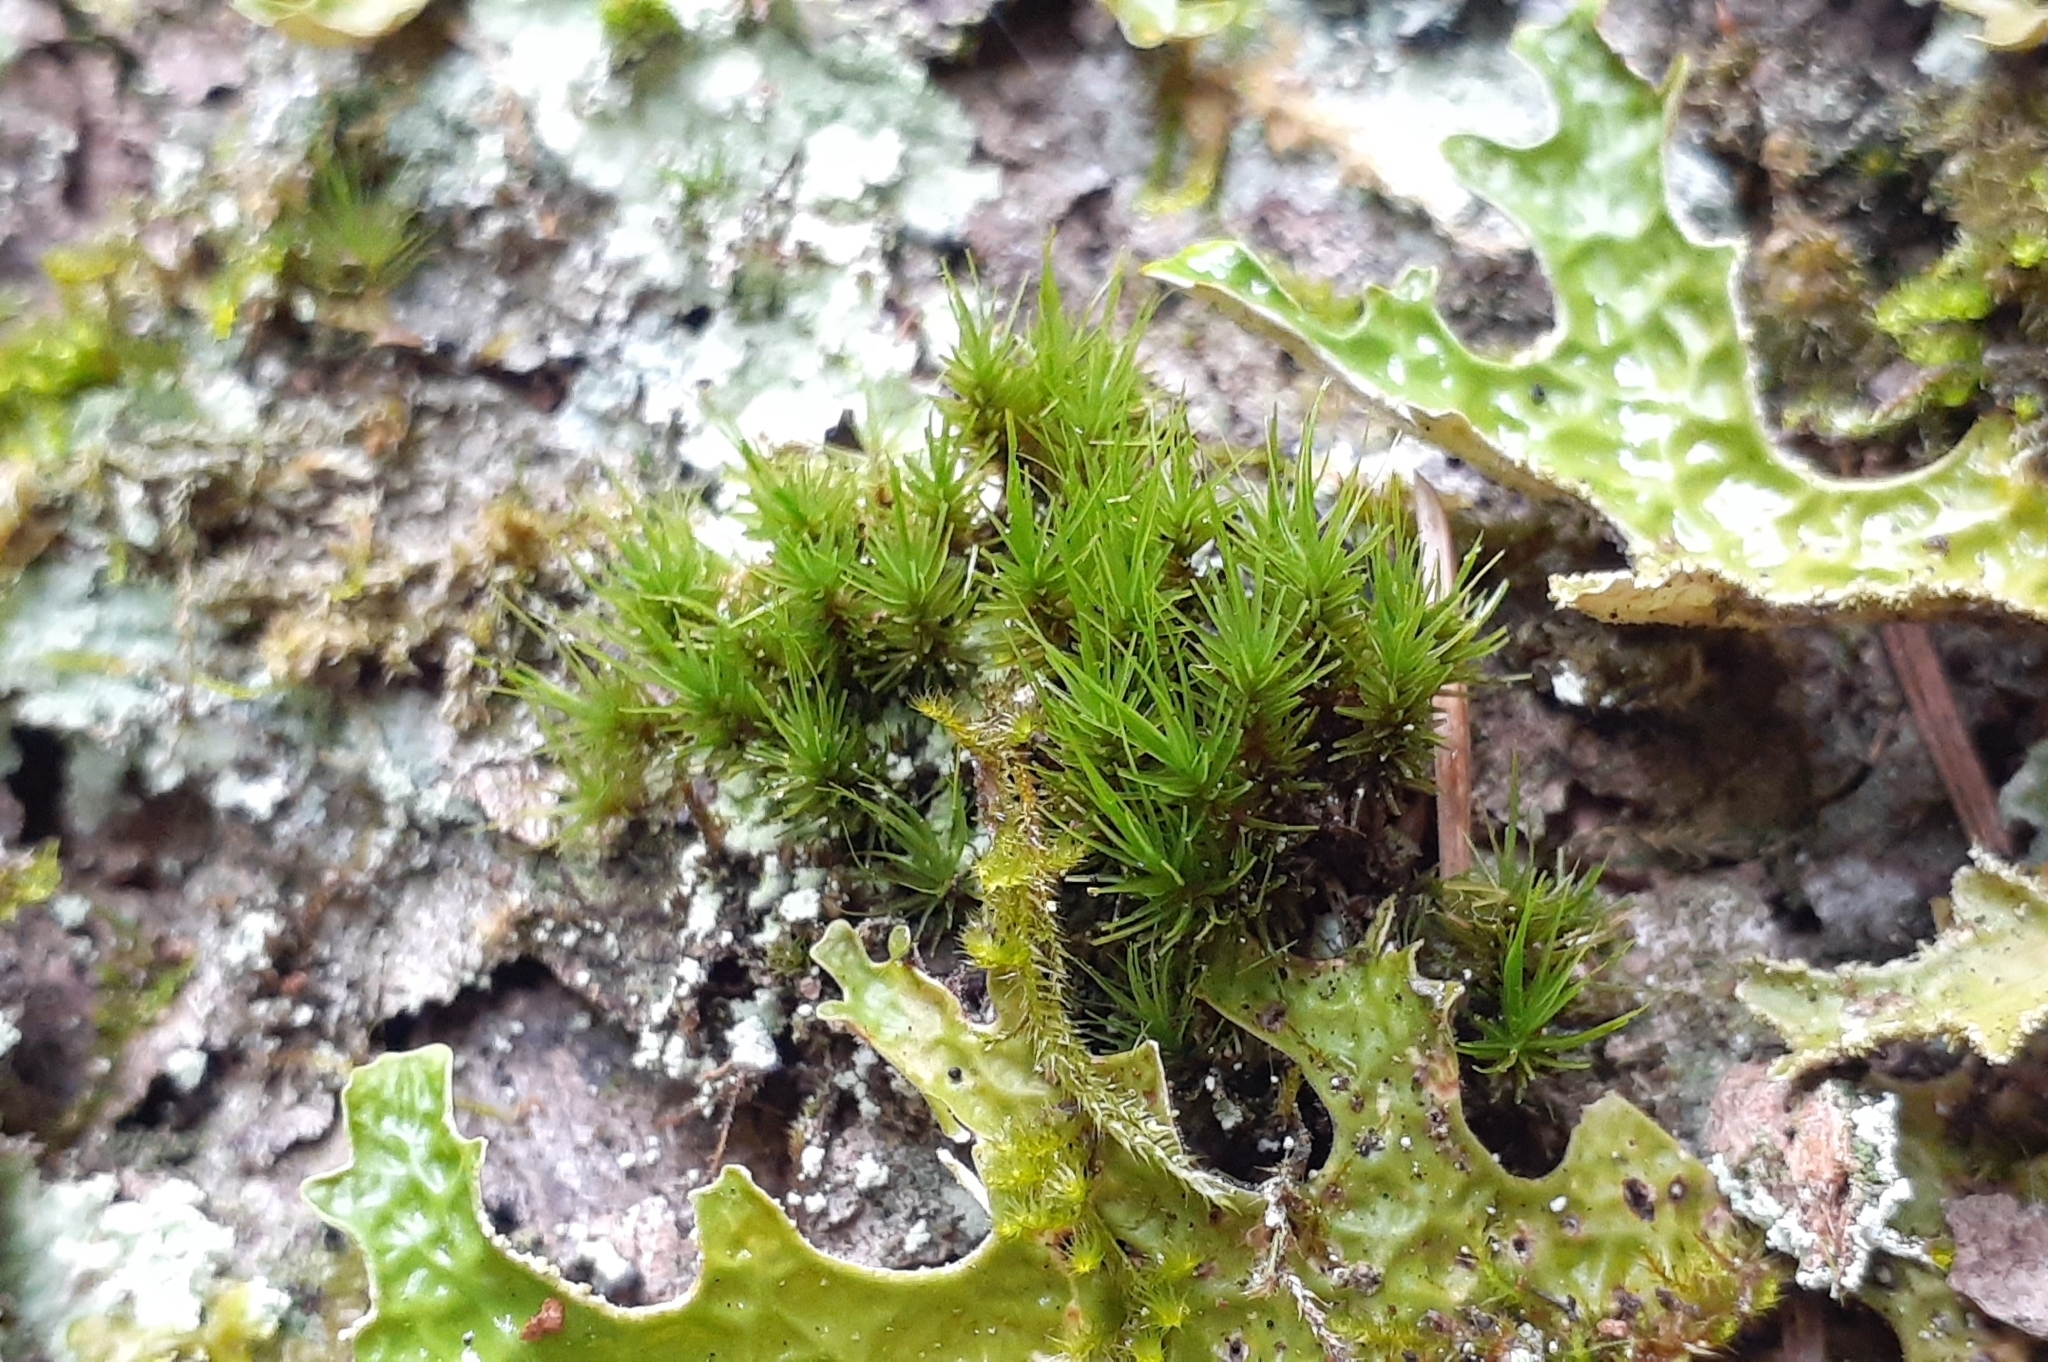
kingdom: Plantae
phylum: Bryophyta
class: Bryopsida
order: Dicranales
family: Dicranaceae
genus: Dicranum
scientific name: Dicranum viride
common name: Green broom moss
